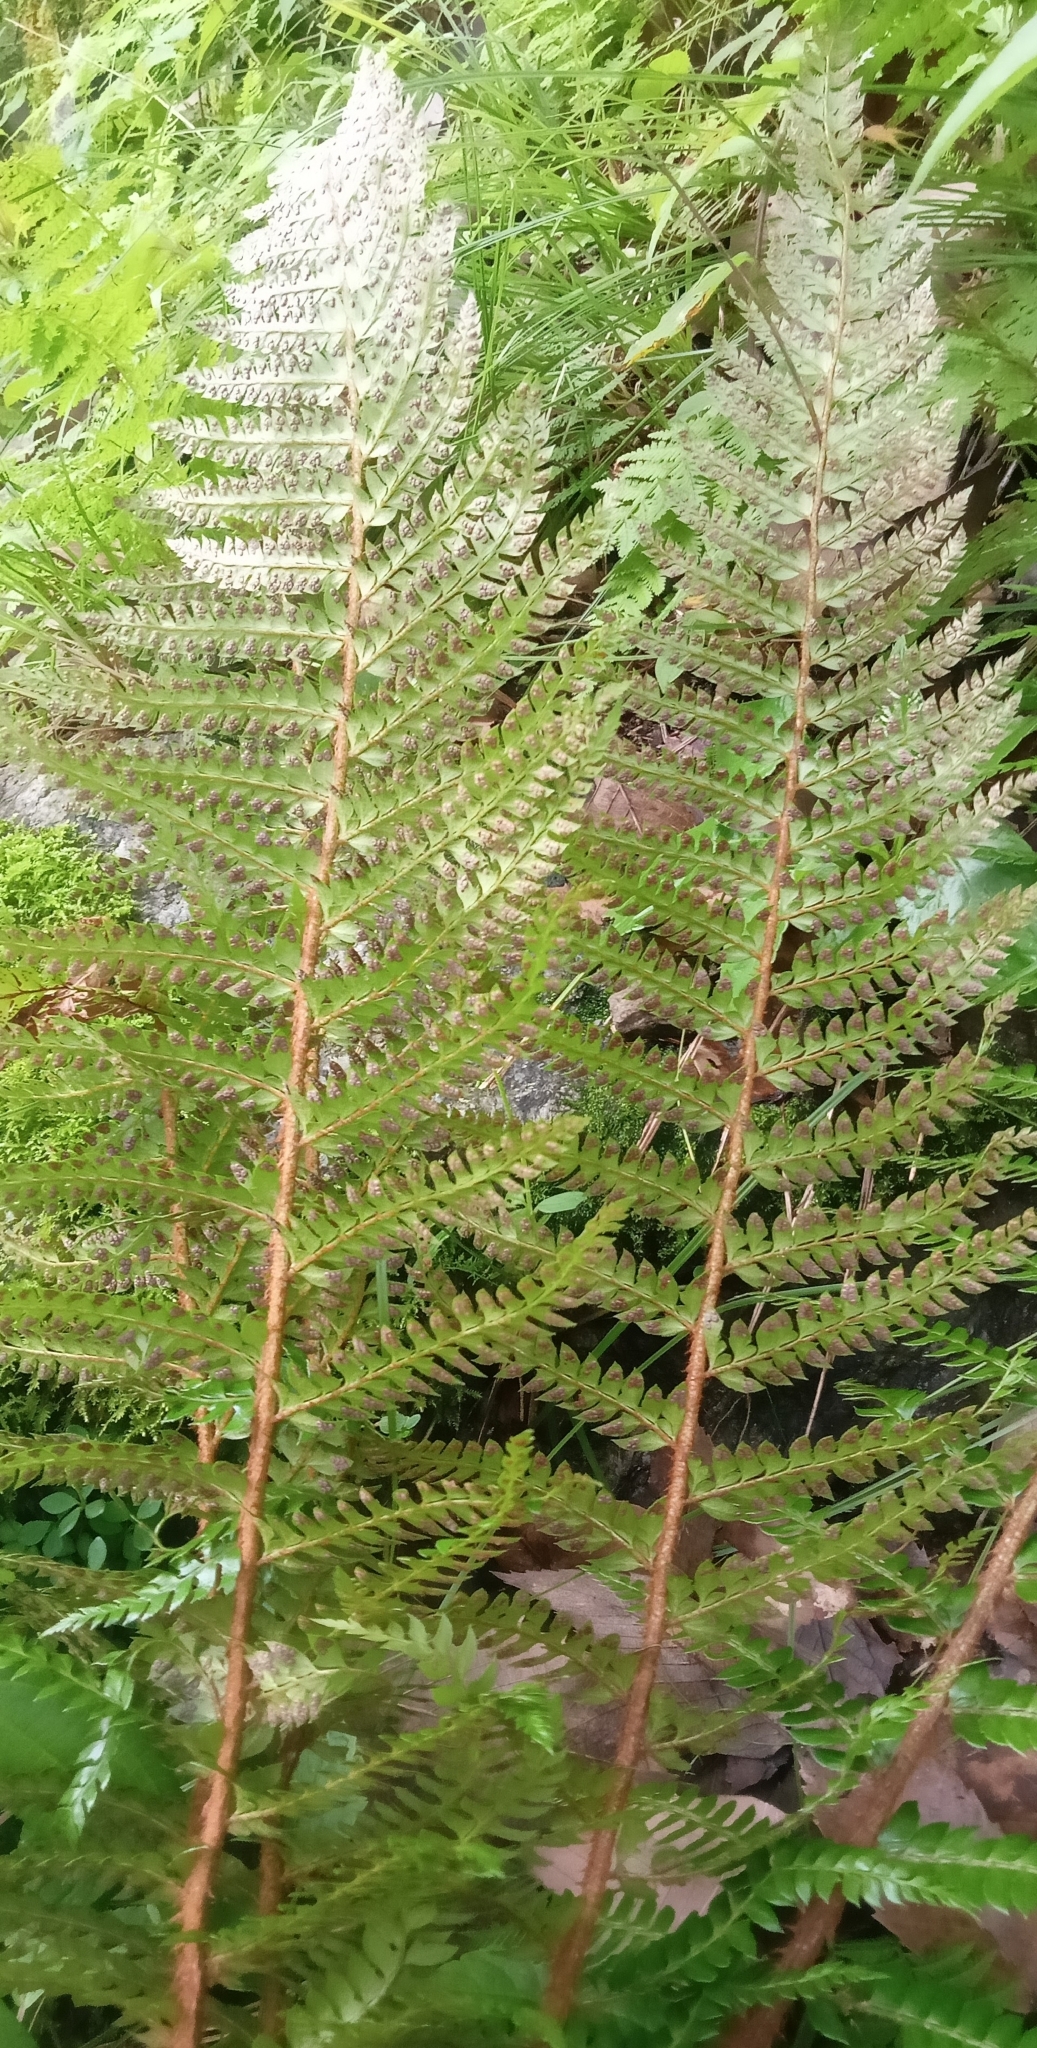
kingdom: Plantae
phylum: Tracheophyta
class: Polypodiopsida
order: Polypodiales
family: Dryopteridaceae
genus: Polystichum
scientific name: Polystichum squarrosum
